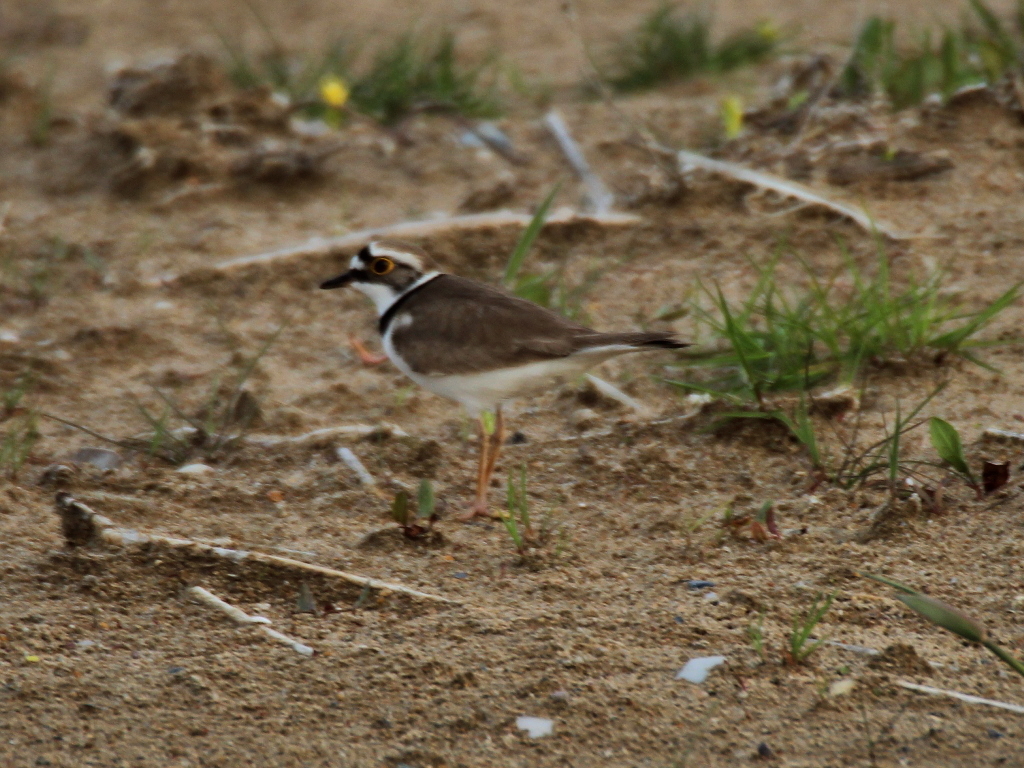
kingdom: Animalia
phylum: Chordata
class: Aves
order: Charadriiformes
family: Charadriidae
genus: Charadrius
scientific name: Charadrius dubius
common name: Little ringed plover
